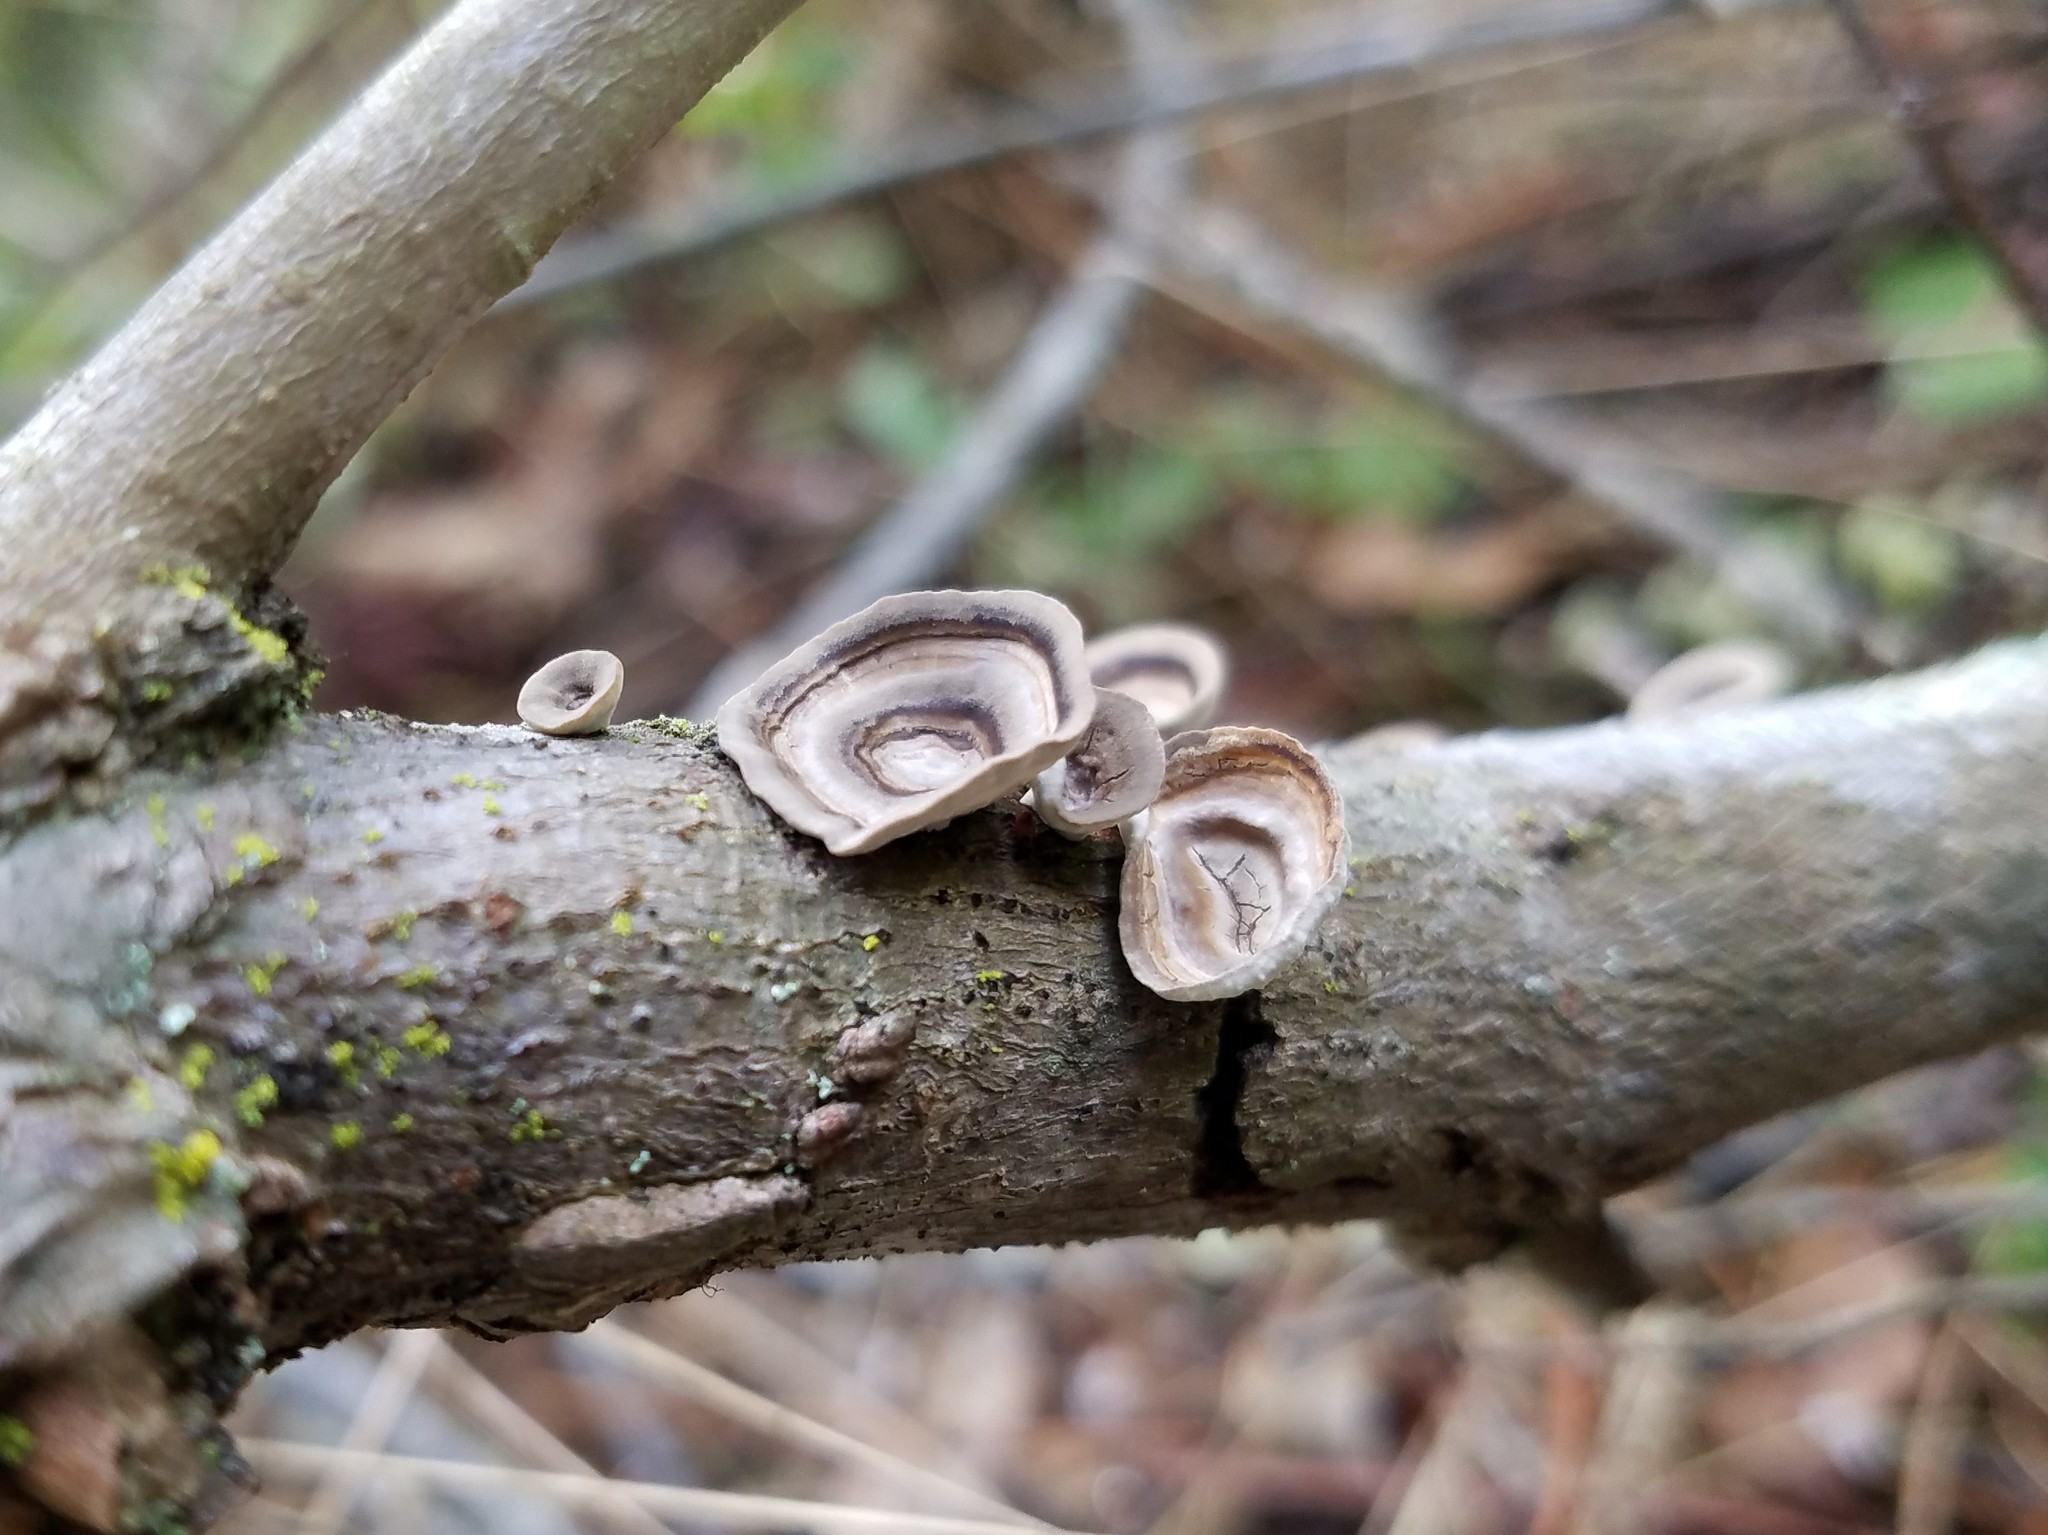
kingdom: Fungi
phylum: Basidiomycota
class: Agaricomycetes
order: Polyporales
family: Polyporaceae
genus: Poronidulus
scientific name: Poronidulus conchifer
